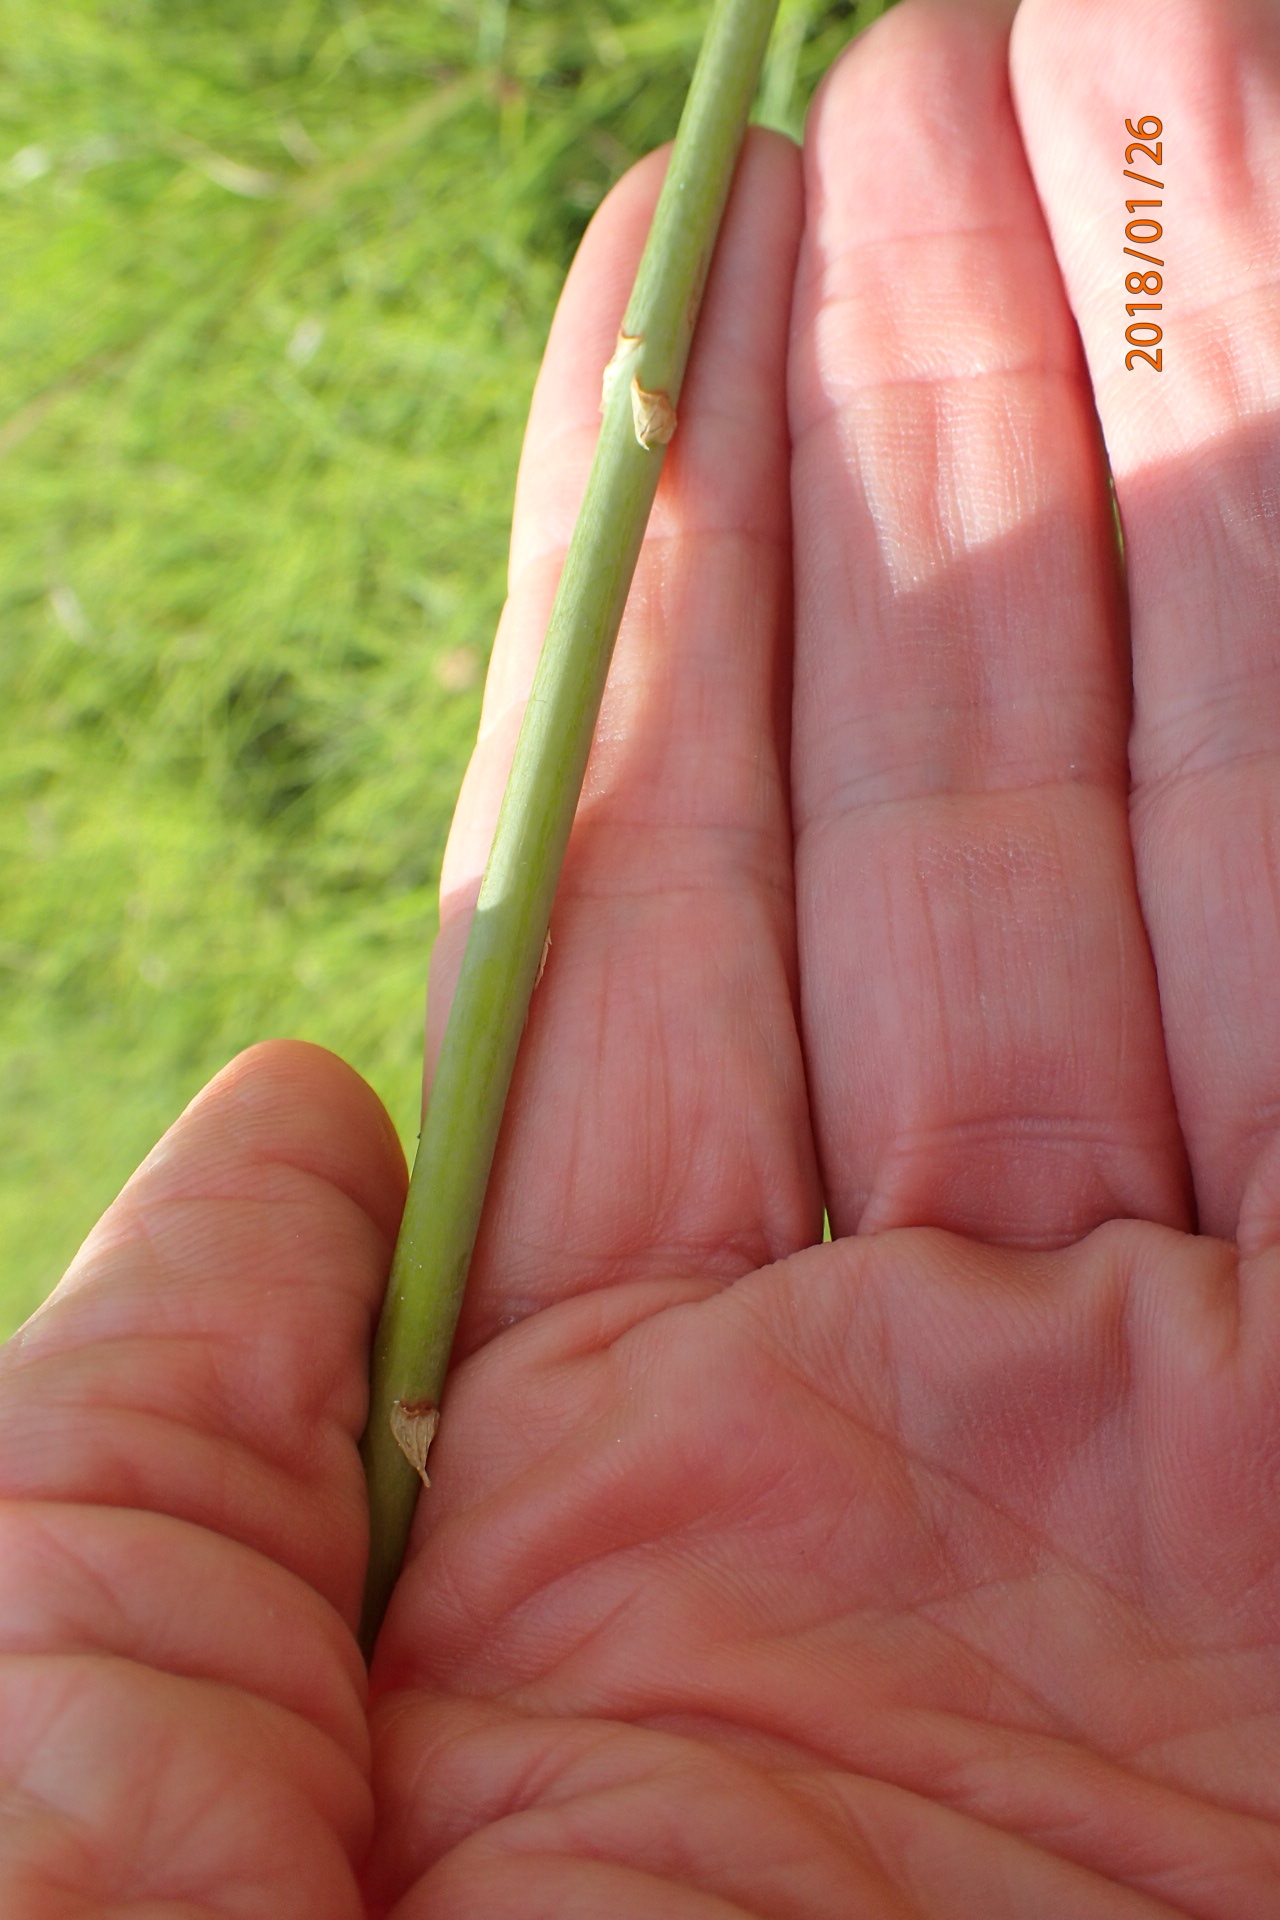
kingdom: Plantae
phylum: Tracheophyta
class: Liliopsida
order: Asparagales
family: Asphodelaceae
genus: Kniphofia
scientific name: Kniphofia buchananii
